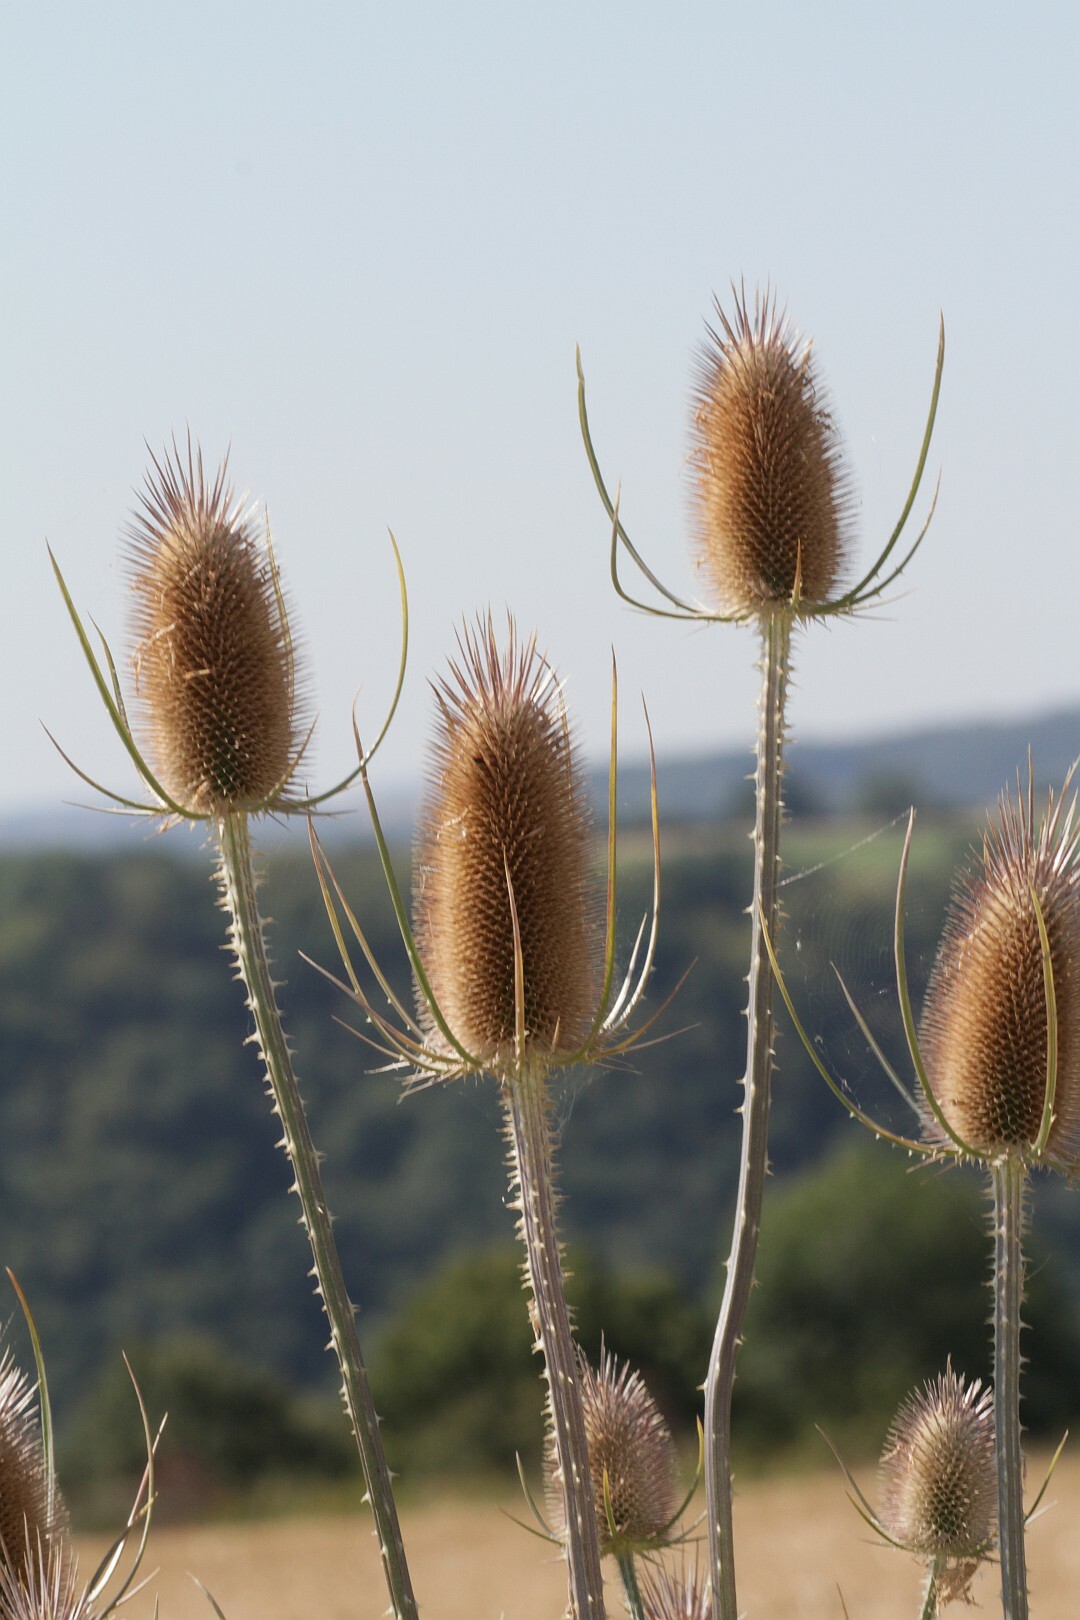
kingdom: Plantae
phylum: Tracheophyta
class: Magnoliopsida
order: Dipsacales
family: Caprifoliaceae
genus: Dipsacus
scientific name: Dipsacus fullonum
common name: Teasel
